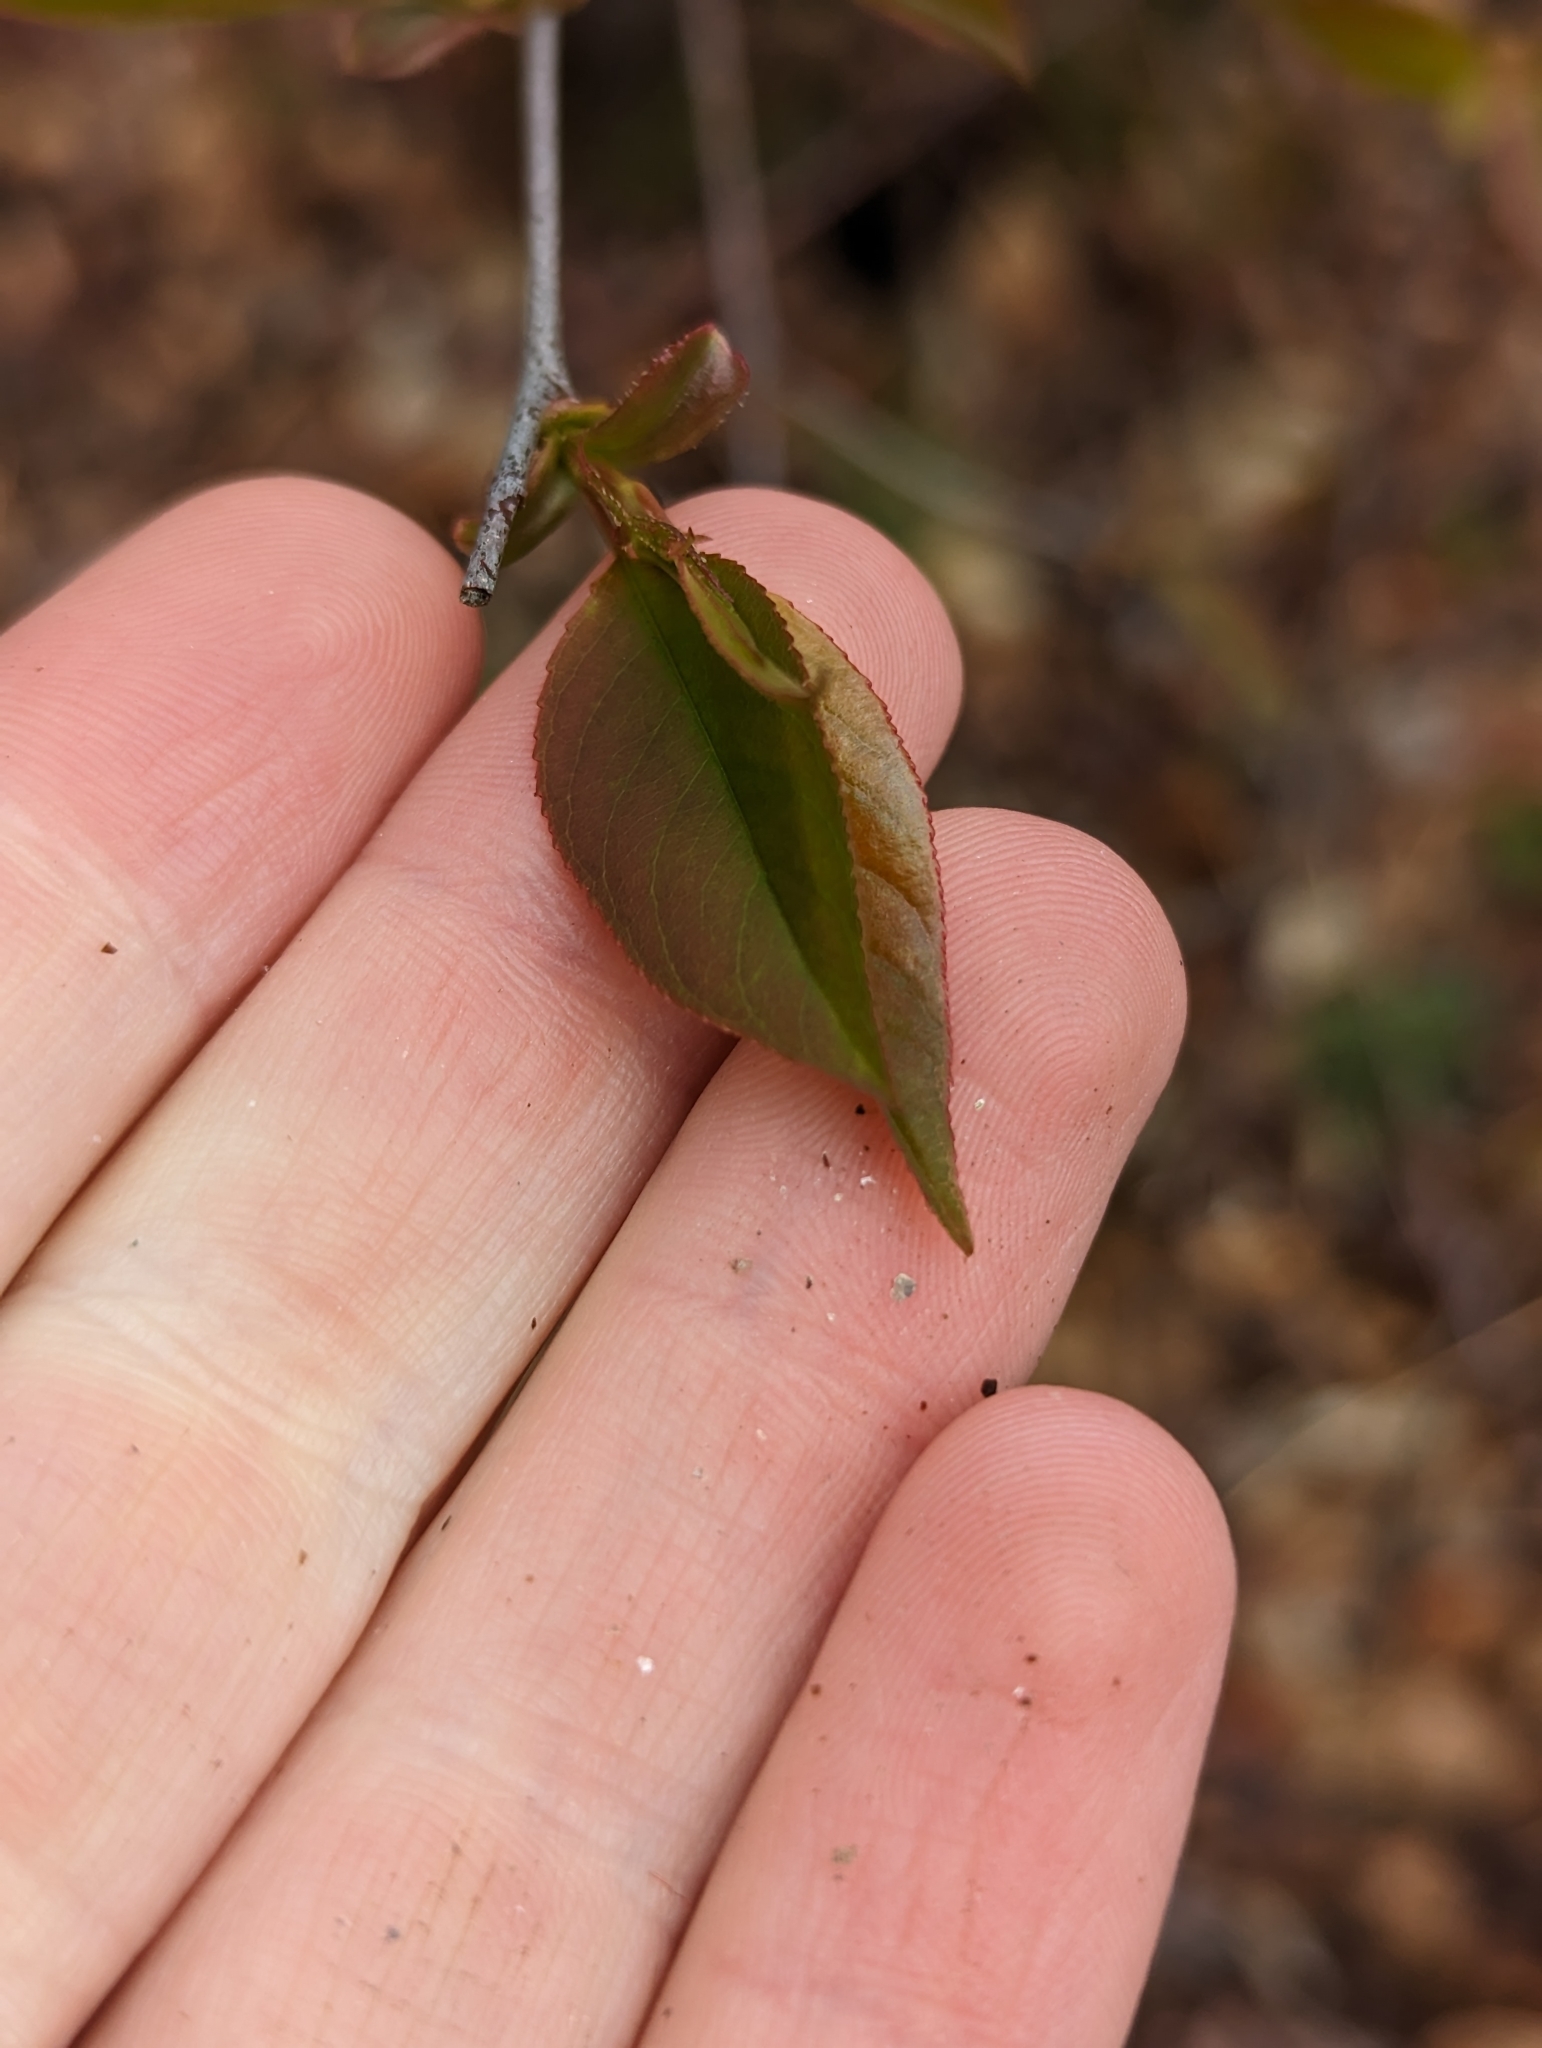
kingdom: Plantae
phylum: Tracheophyta
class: Magnoliopsida
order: Rosales
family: Rosaceae
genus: Prunus
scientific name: Prunus serotina
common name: Black cherry
